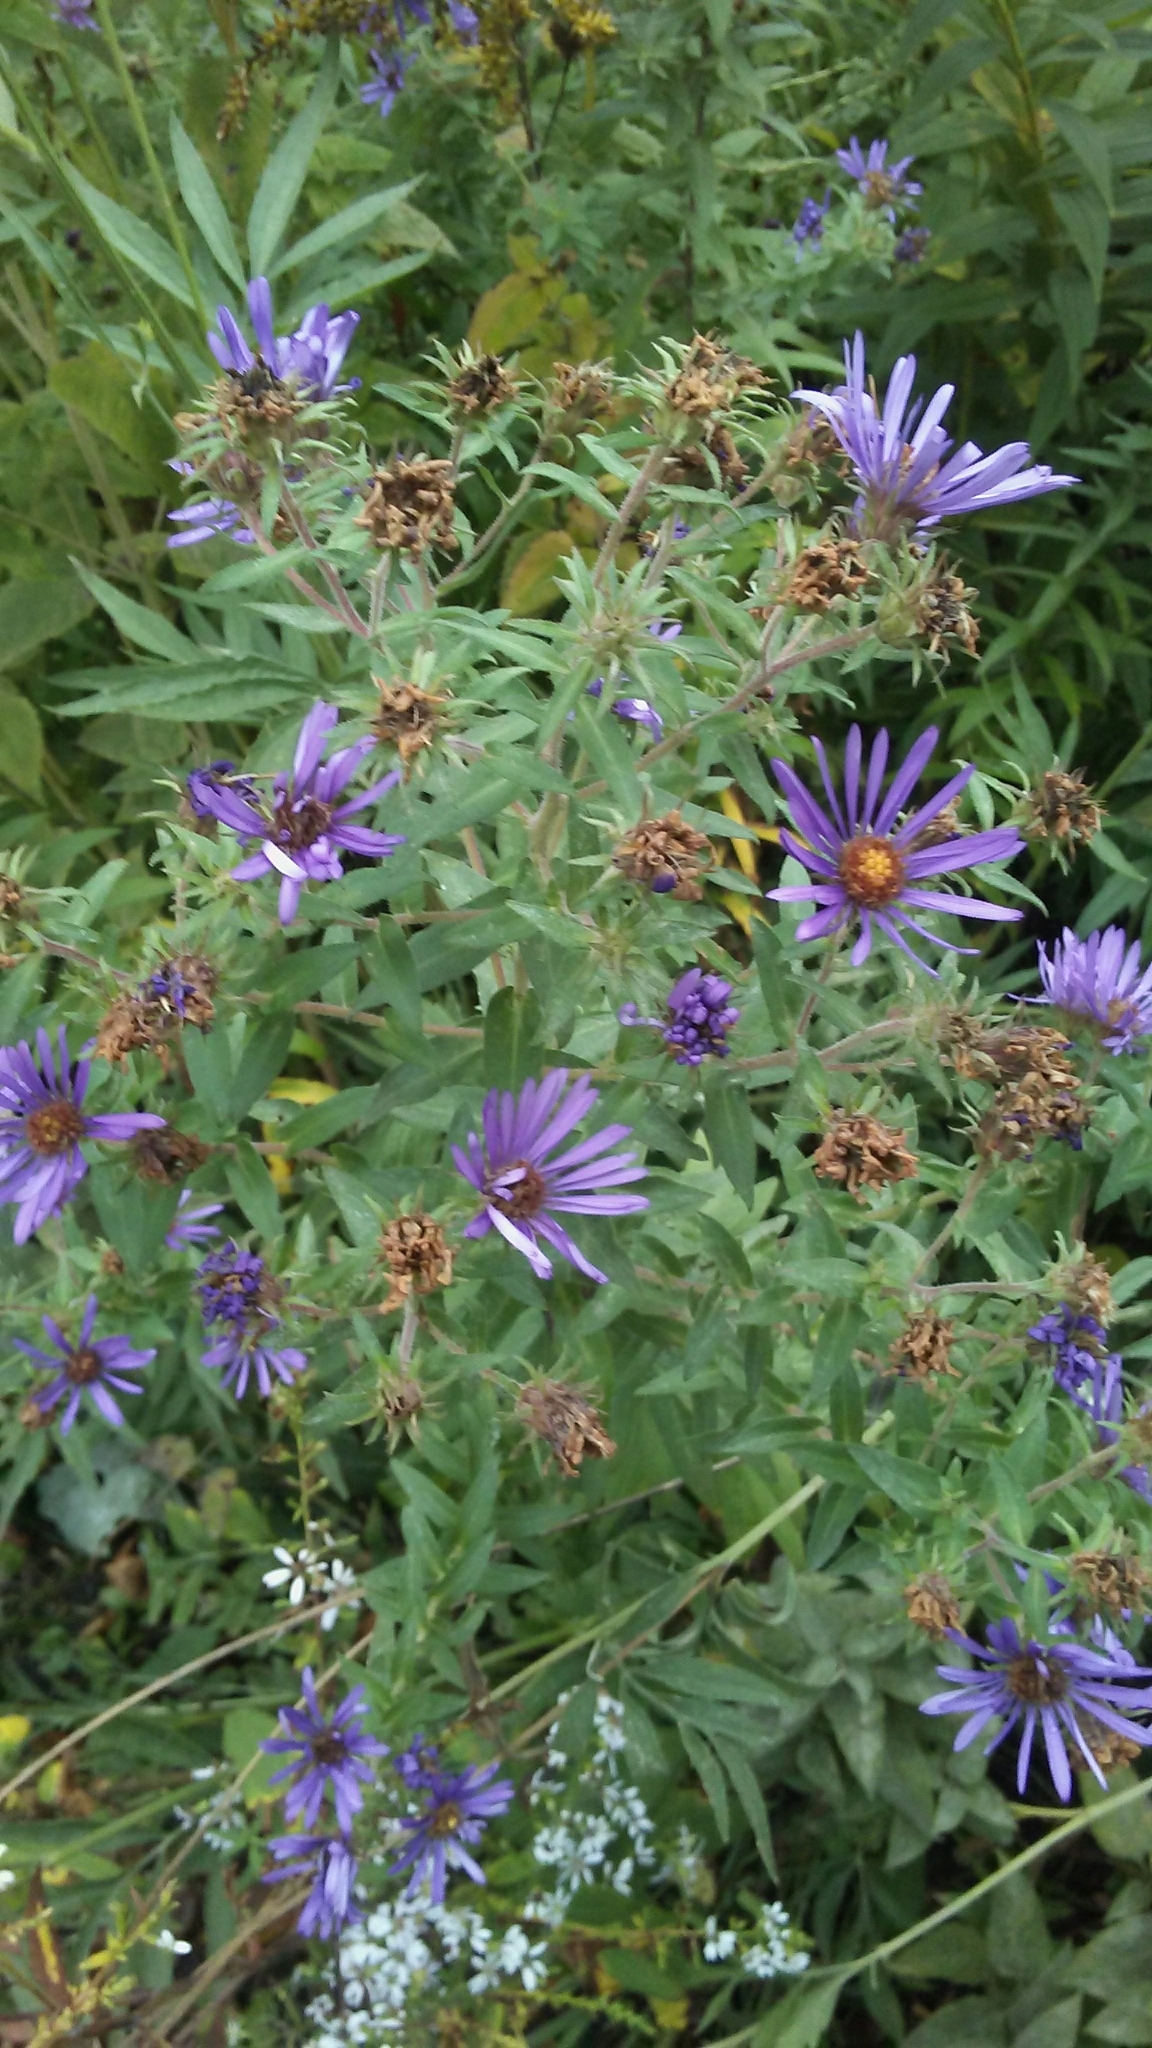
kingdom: Plantae
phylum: Tracheophyta
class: Magnoliopsida
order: Asterales
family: Asteraceae
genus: Symphyotrichum
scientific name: Symphyotrichum novae-angliae
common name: Michaelmas daisy
